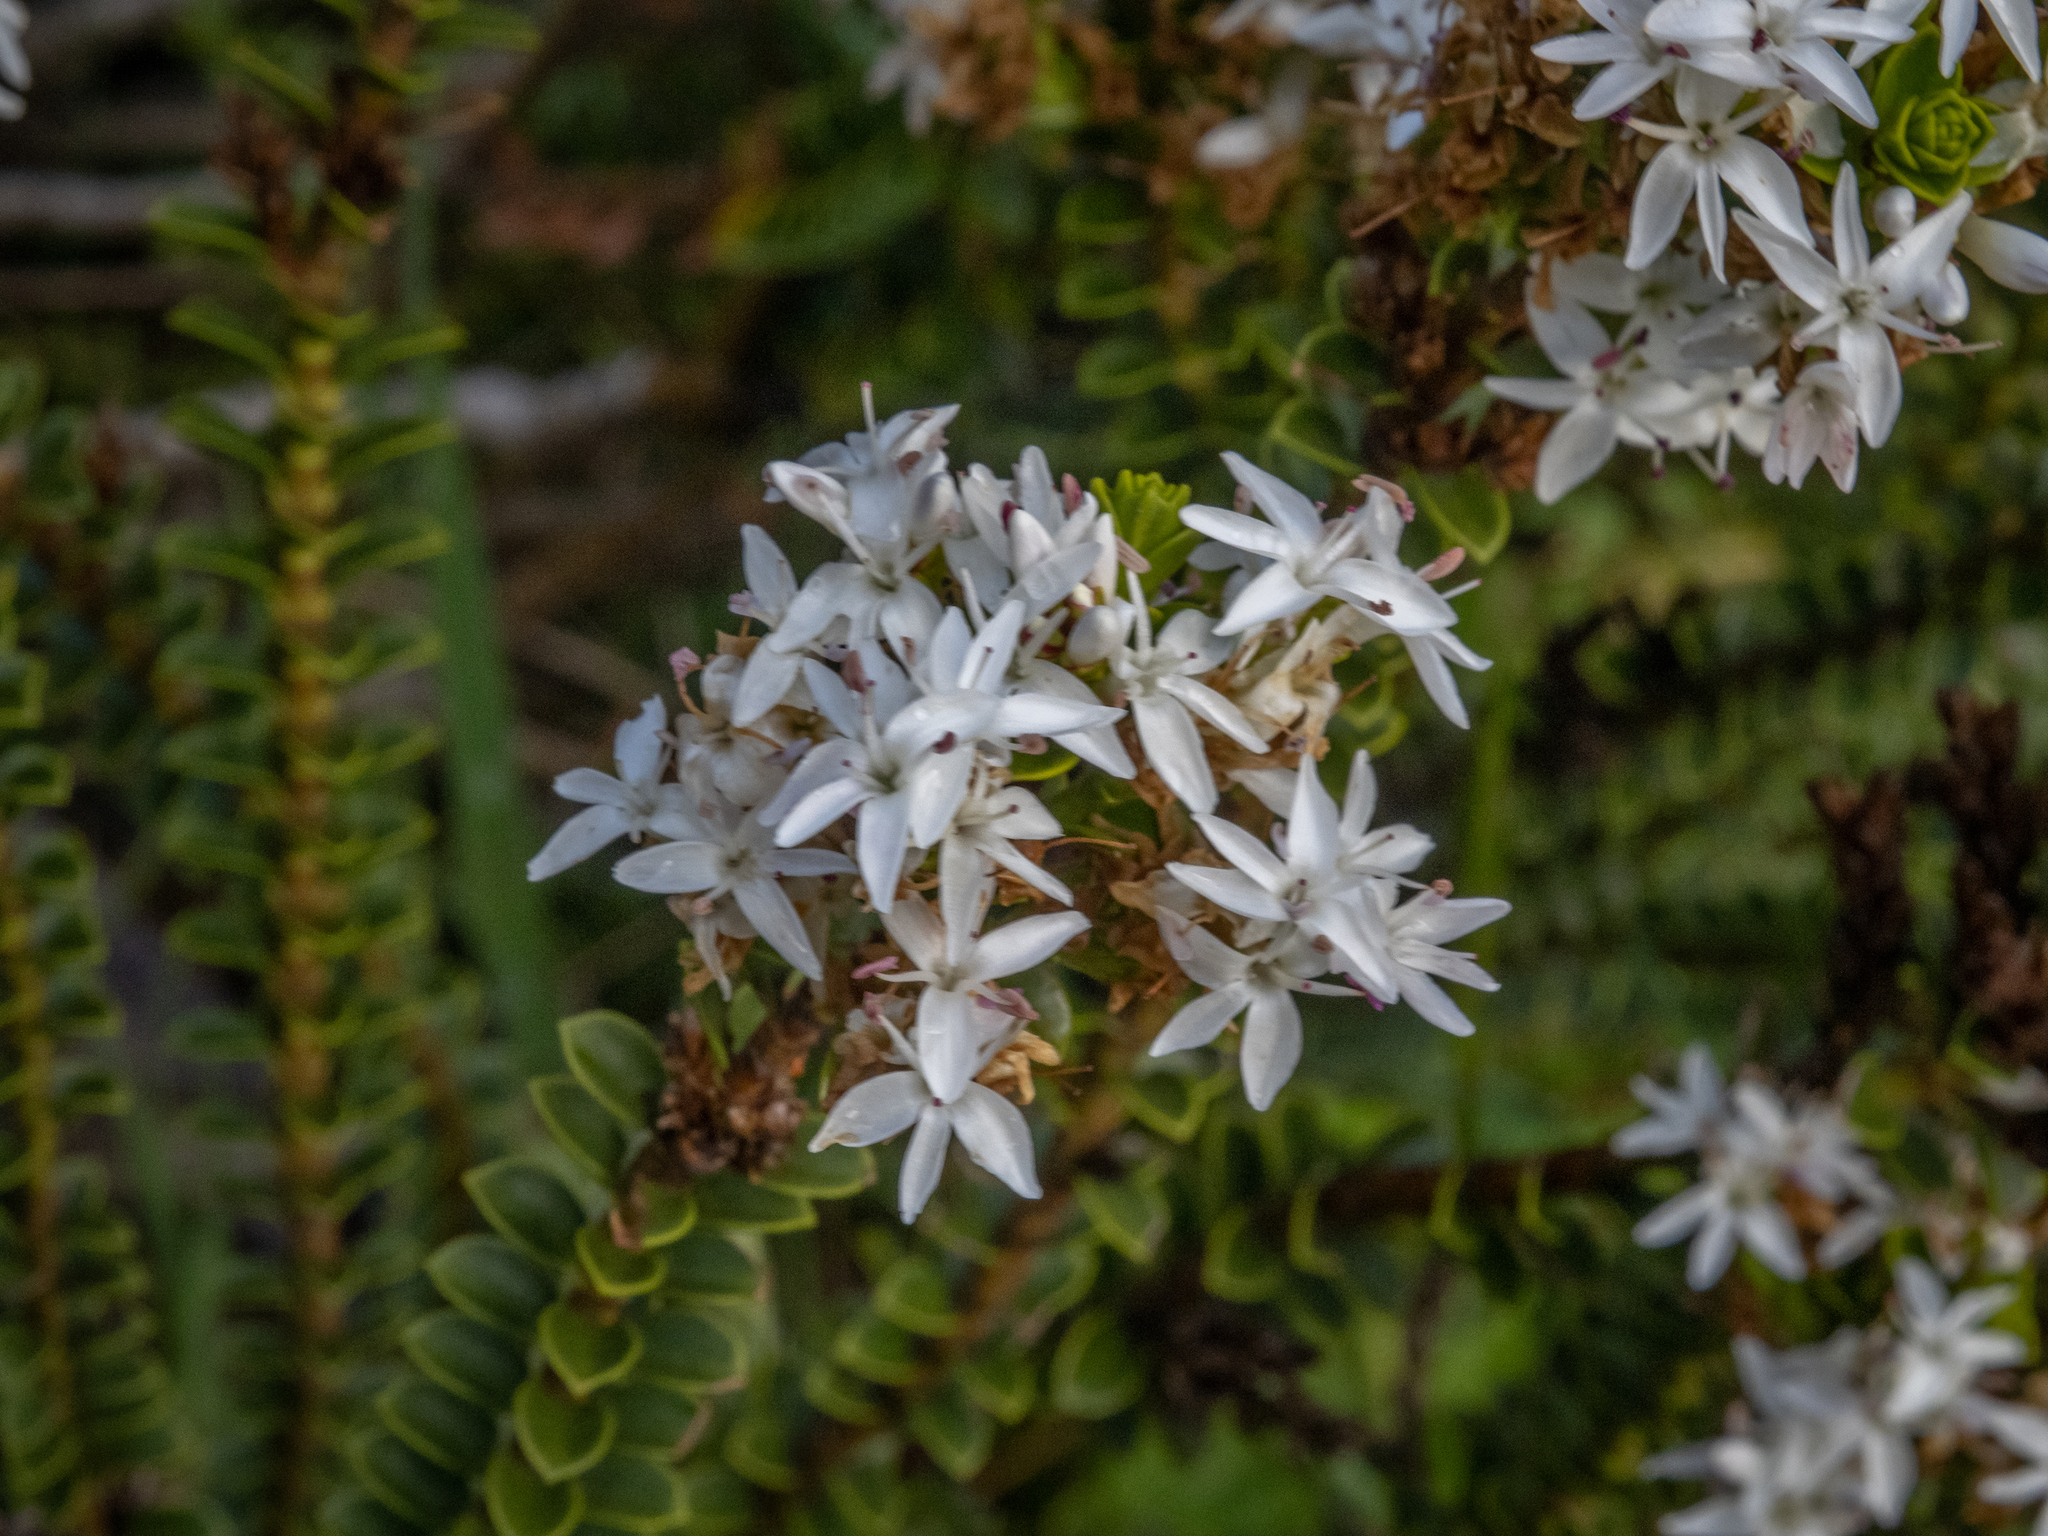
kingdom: Plantae
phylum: Tracheophyta
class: Magnoliopsida
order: Lamiales
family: Plantaginaceae
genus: Veronica
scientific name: Veronica pauciramosa
